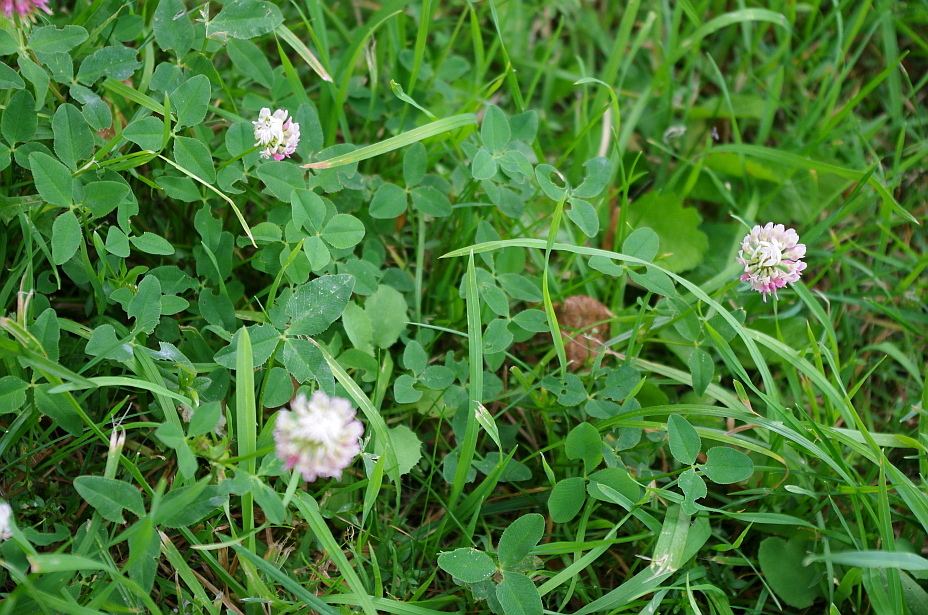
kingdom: Plantae
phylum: Tracheophyta
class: Magnoliopsida
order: Fabales
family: Fabaceae
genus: Trifolium
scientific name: Trifolium hybridum
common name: Alsike clover
